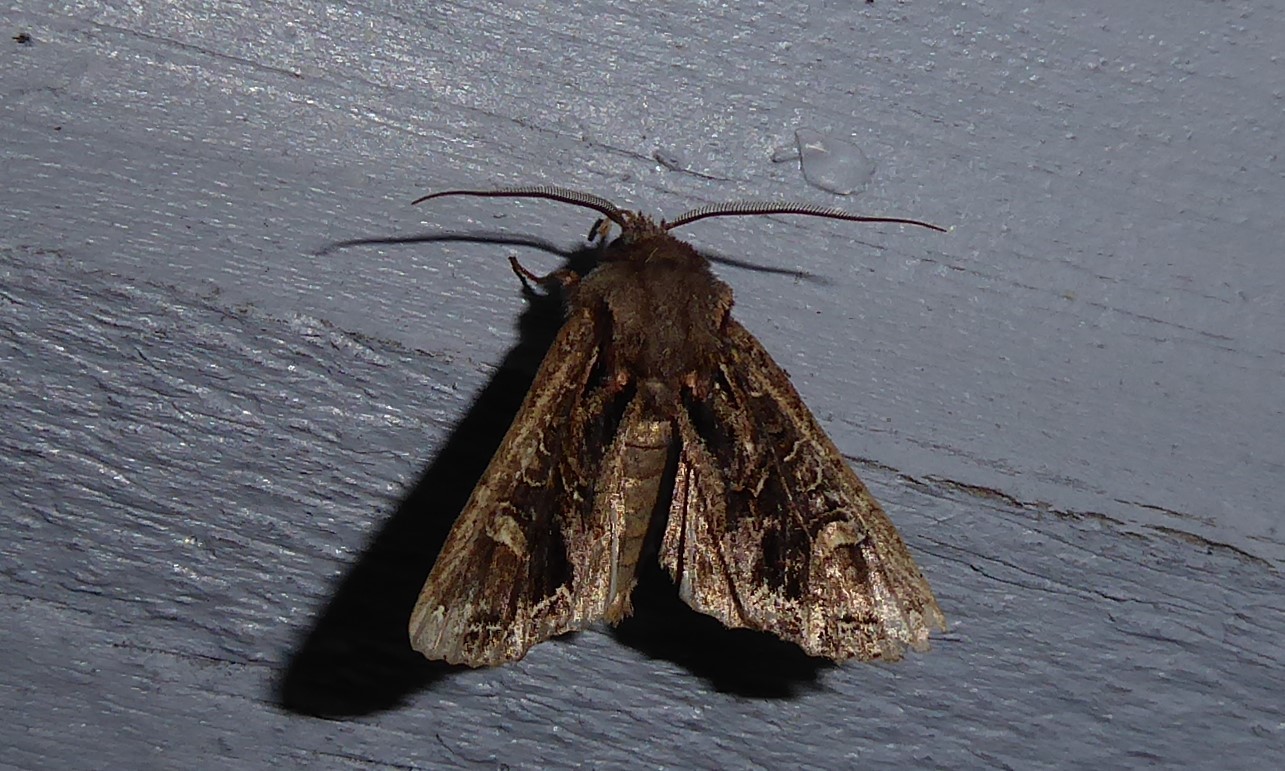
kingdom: Animalia
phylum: Arthropoda
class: Insecta
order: Lepidoptera
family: Noctuidae
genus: Ichneutica
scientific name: Ichneutica insignis
